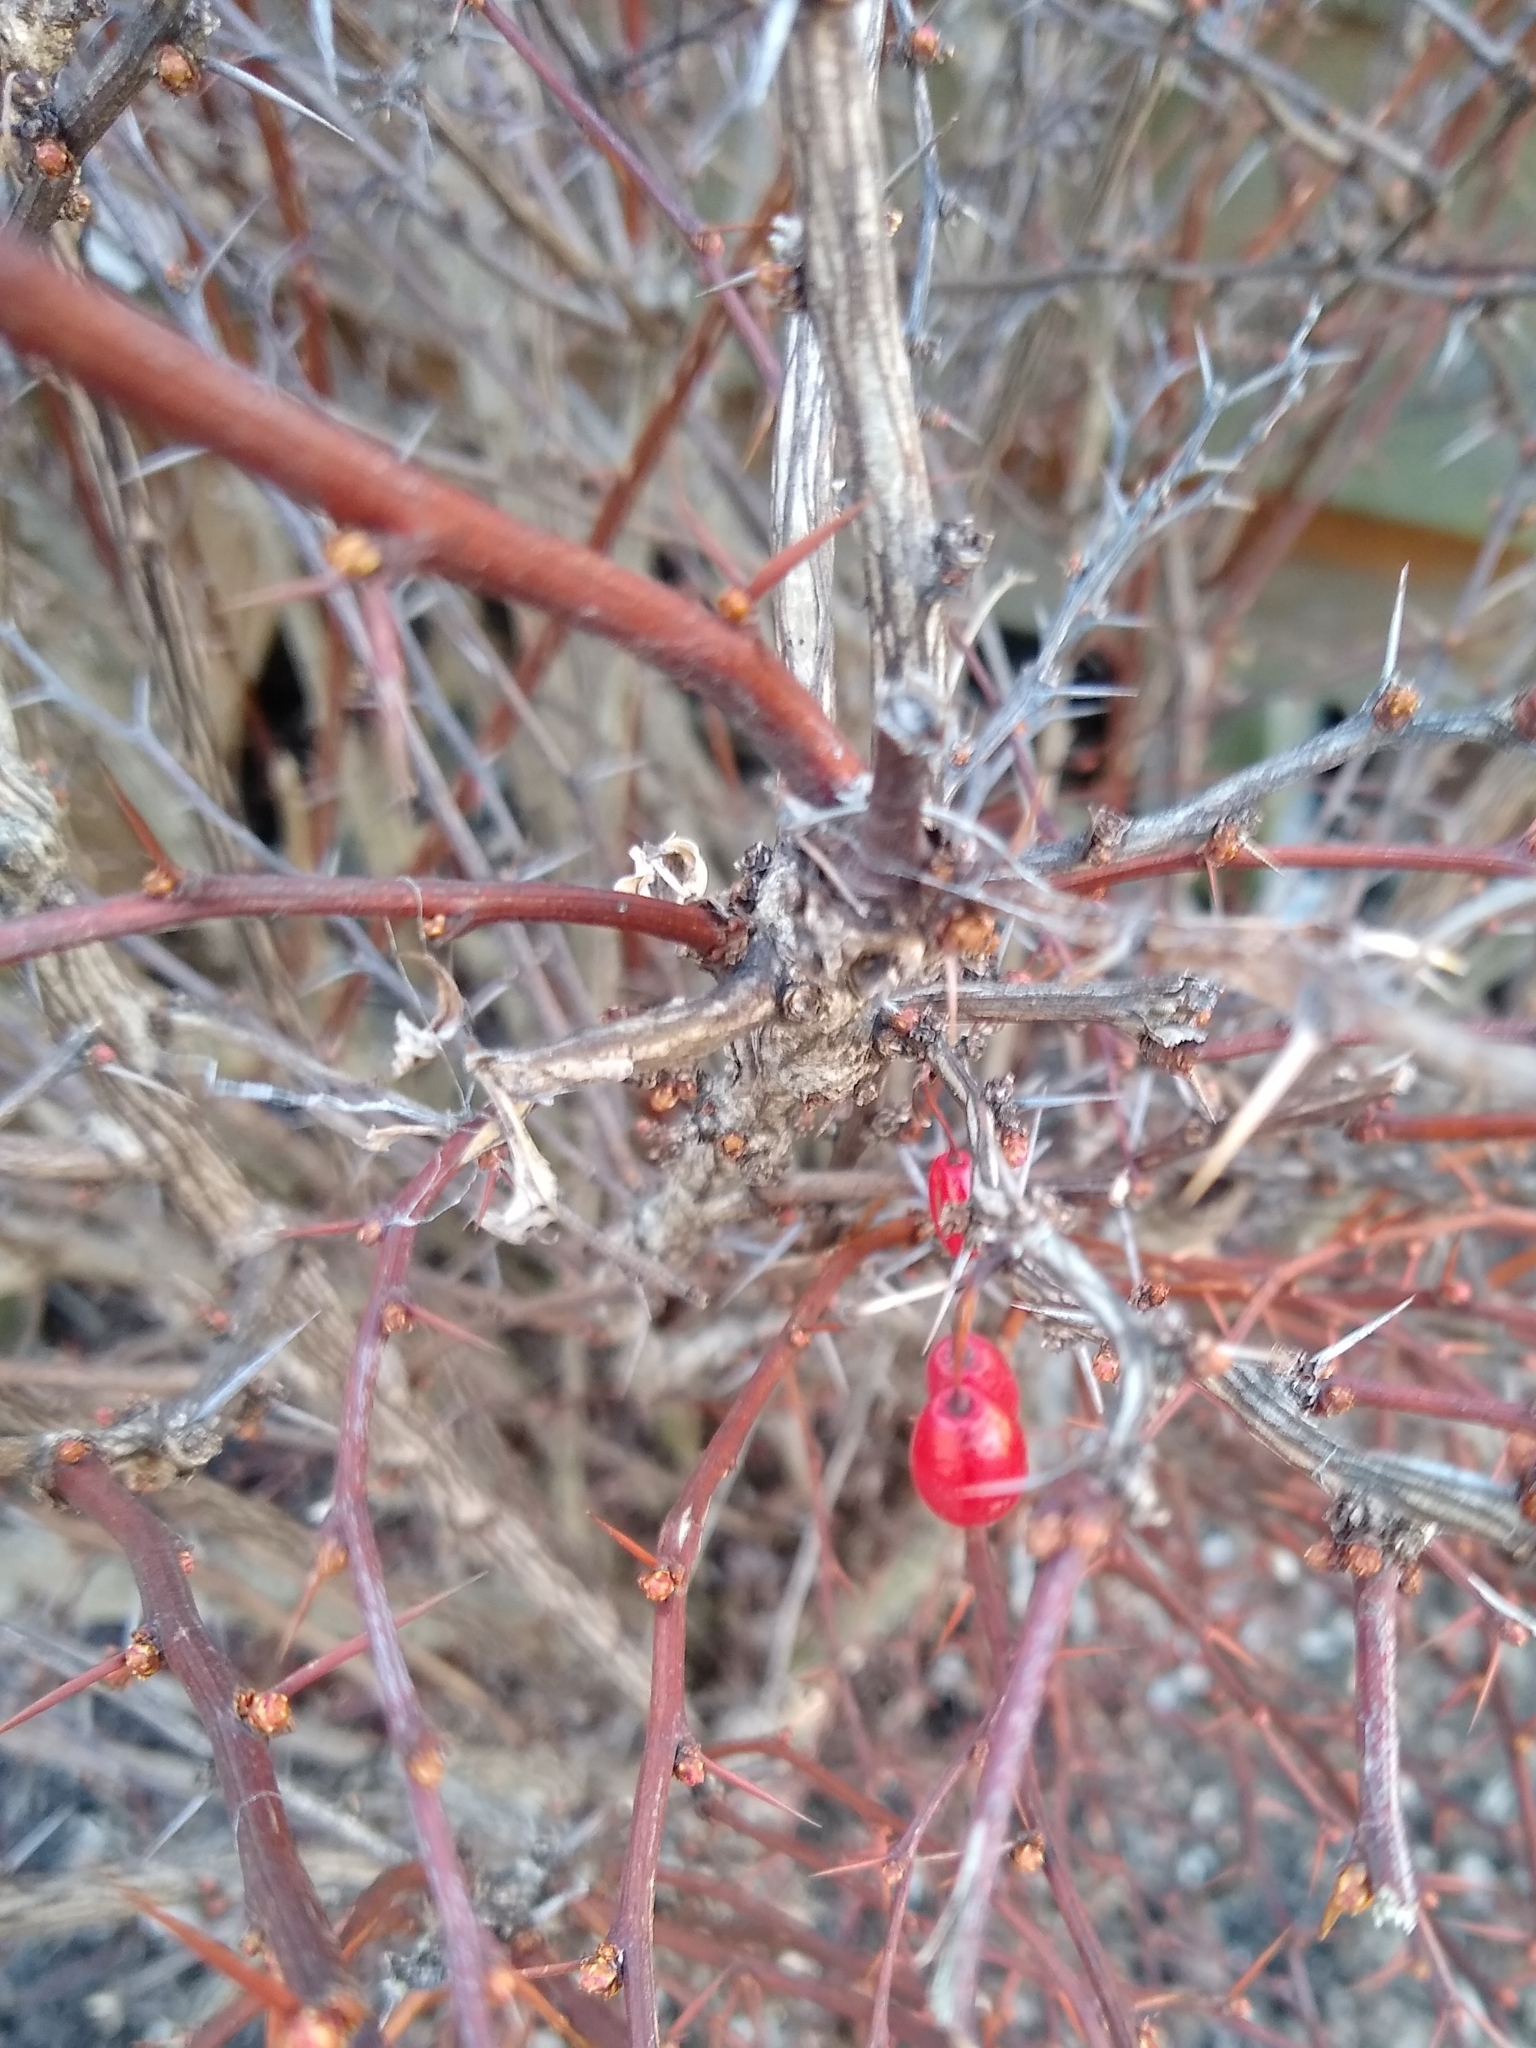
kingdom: Plantae
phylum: Tracheophyta
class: Magnoliopsida
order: Ranunculales
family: Berberidaceae
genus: Berberis
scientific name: Berberis thunbergii
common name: Japanese barberry
